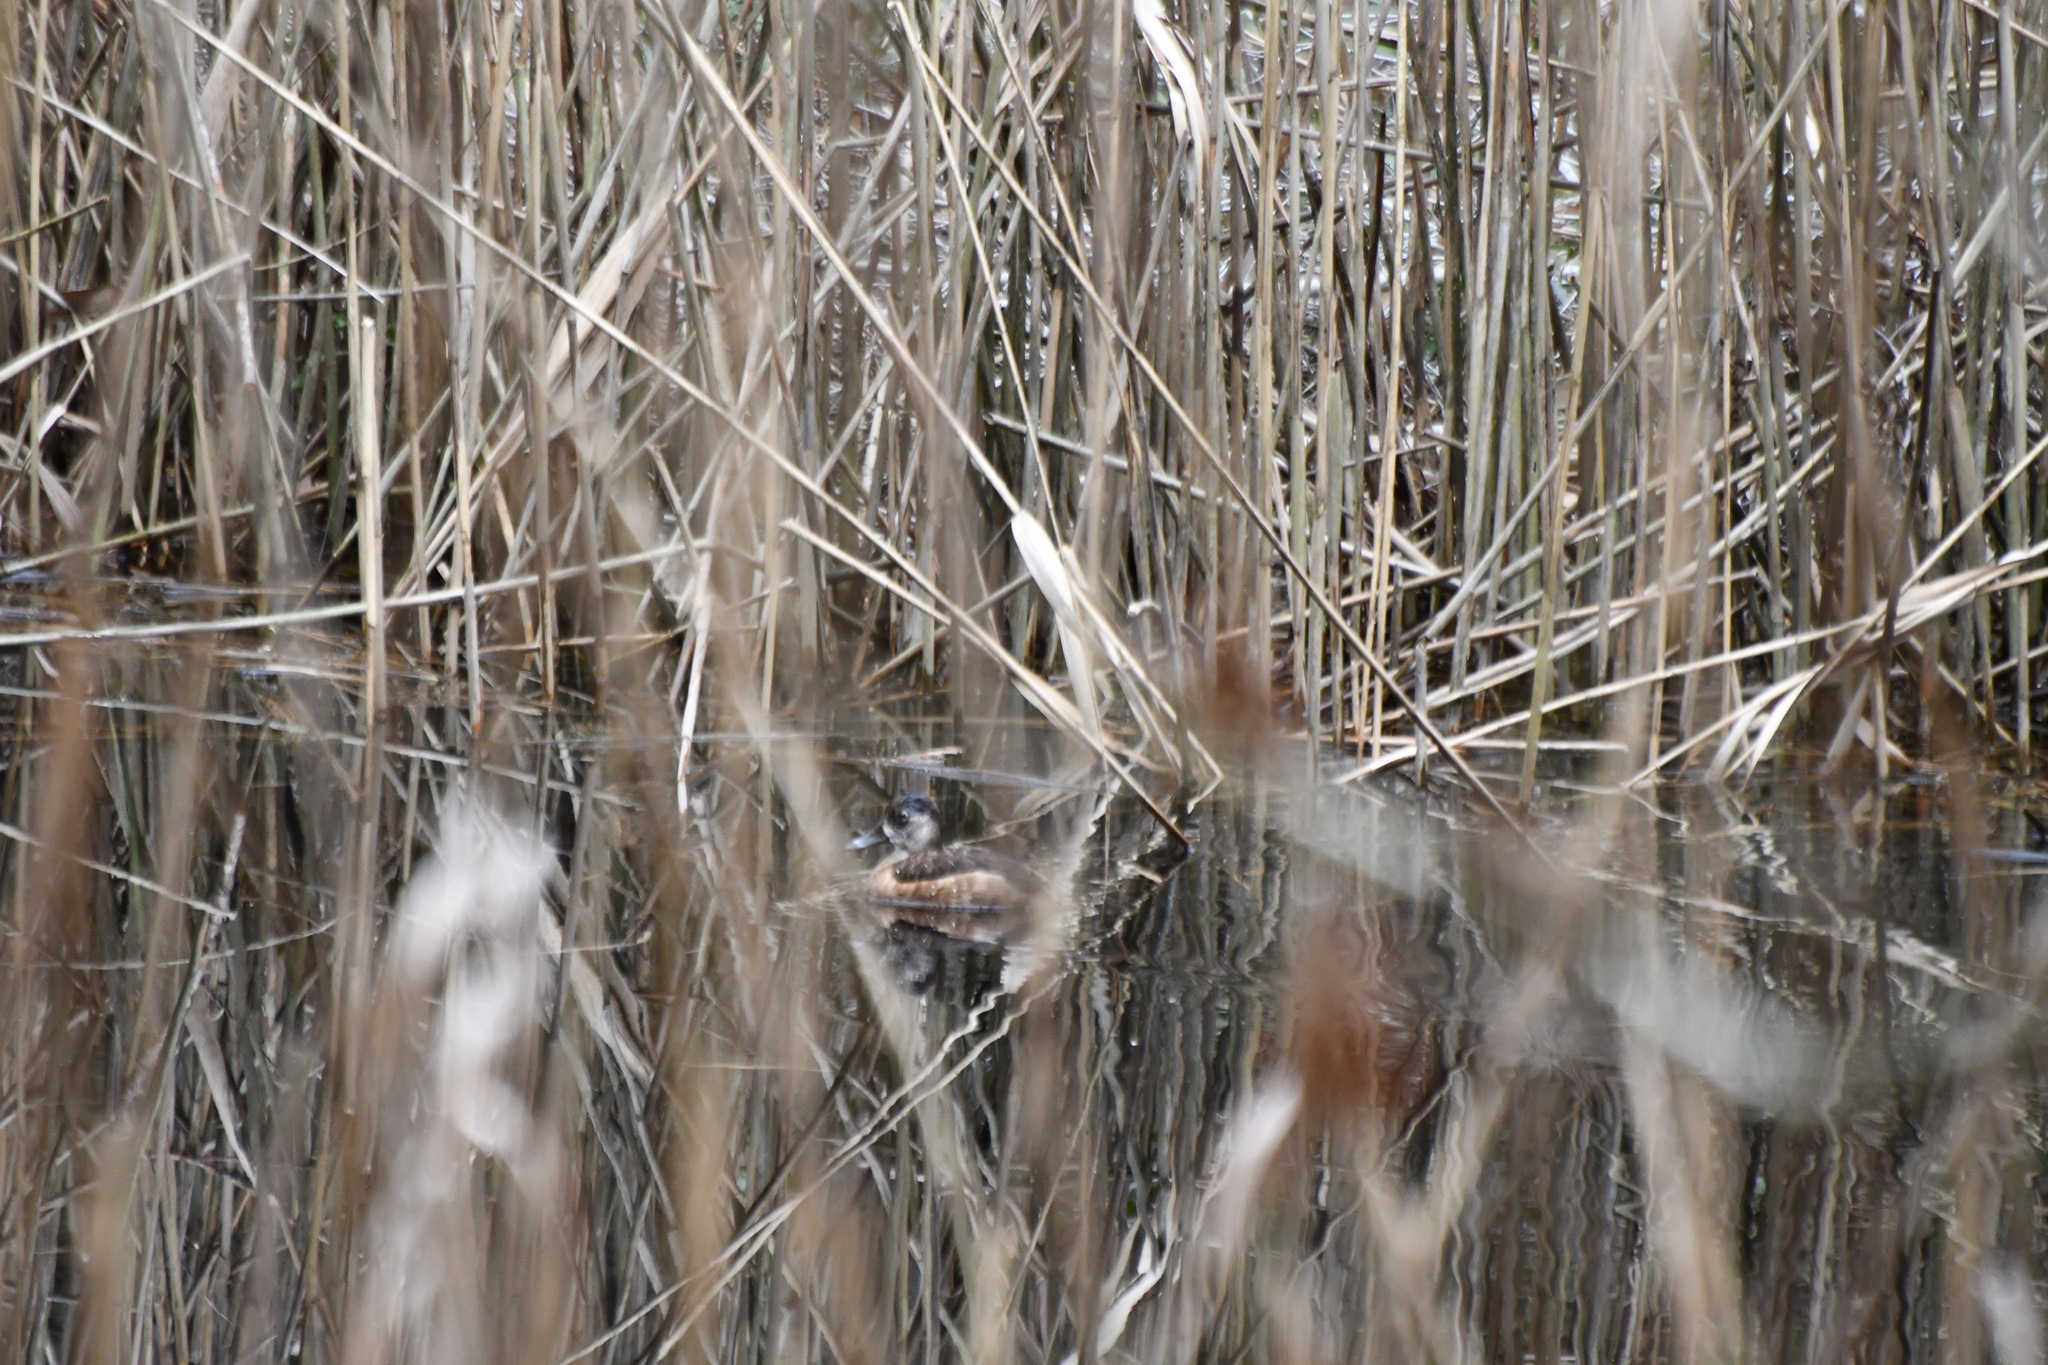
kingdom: Animalia
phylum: Chordata
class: Aves
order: Anseriformes
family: Anatidae
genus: Aythya
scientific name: Aythya collaris
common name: Ring-necked duck
